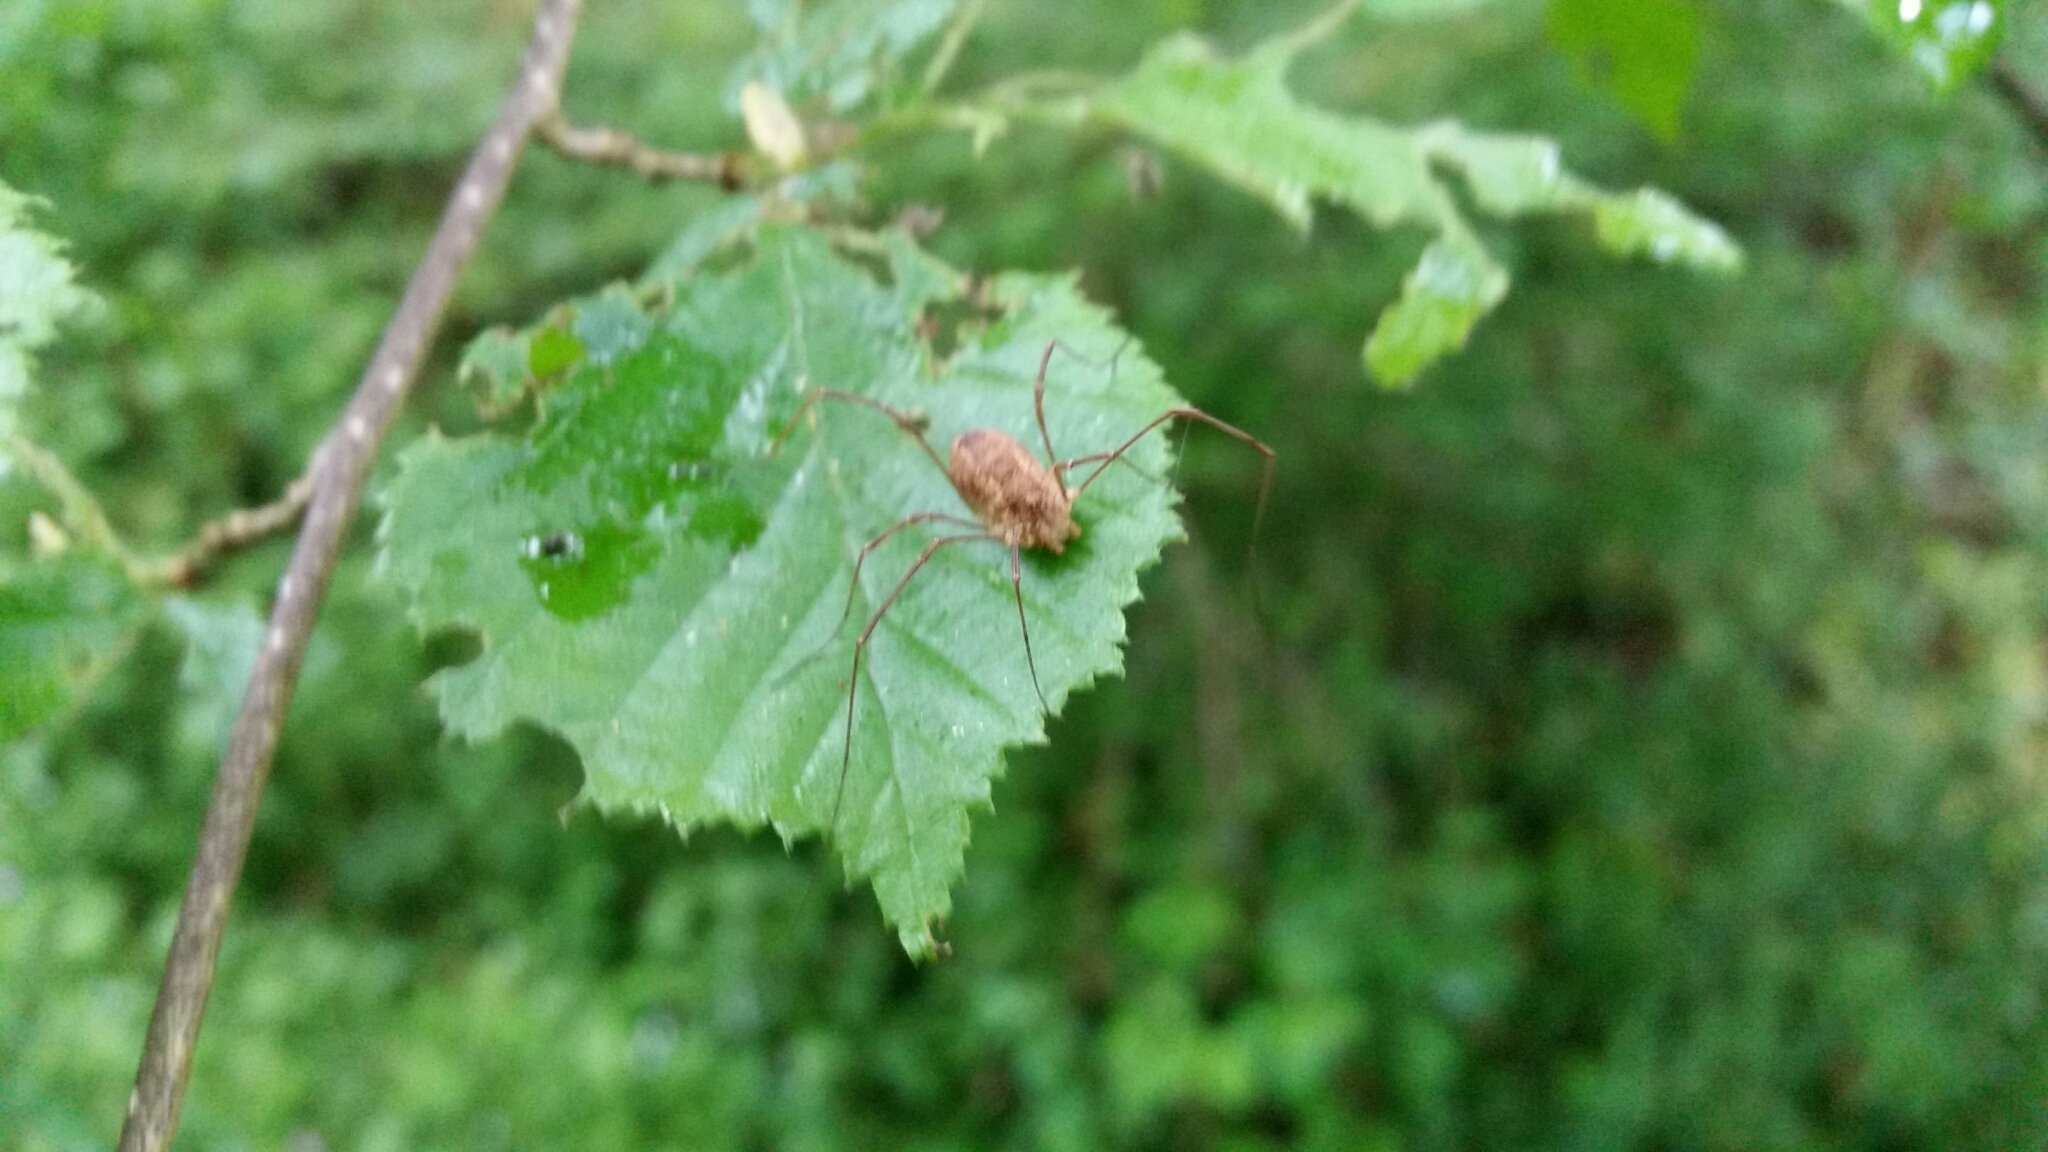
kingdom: Animalia
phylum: Arthropoda
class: Arachnida
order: Opiliones
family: Phalangiidae
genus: Rilaena
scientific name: Rilaena triangularis
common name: Spring harvestman
